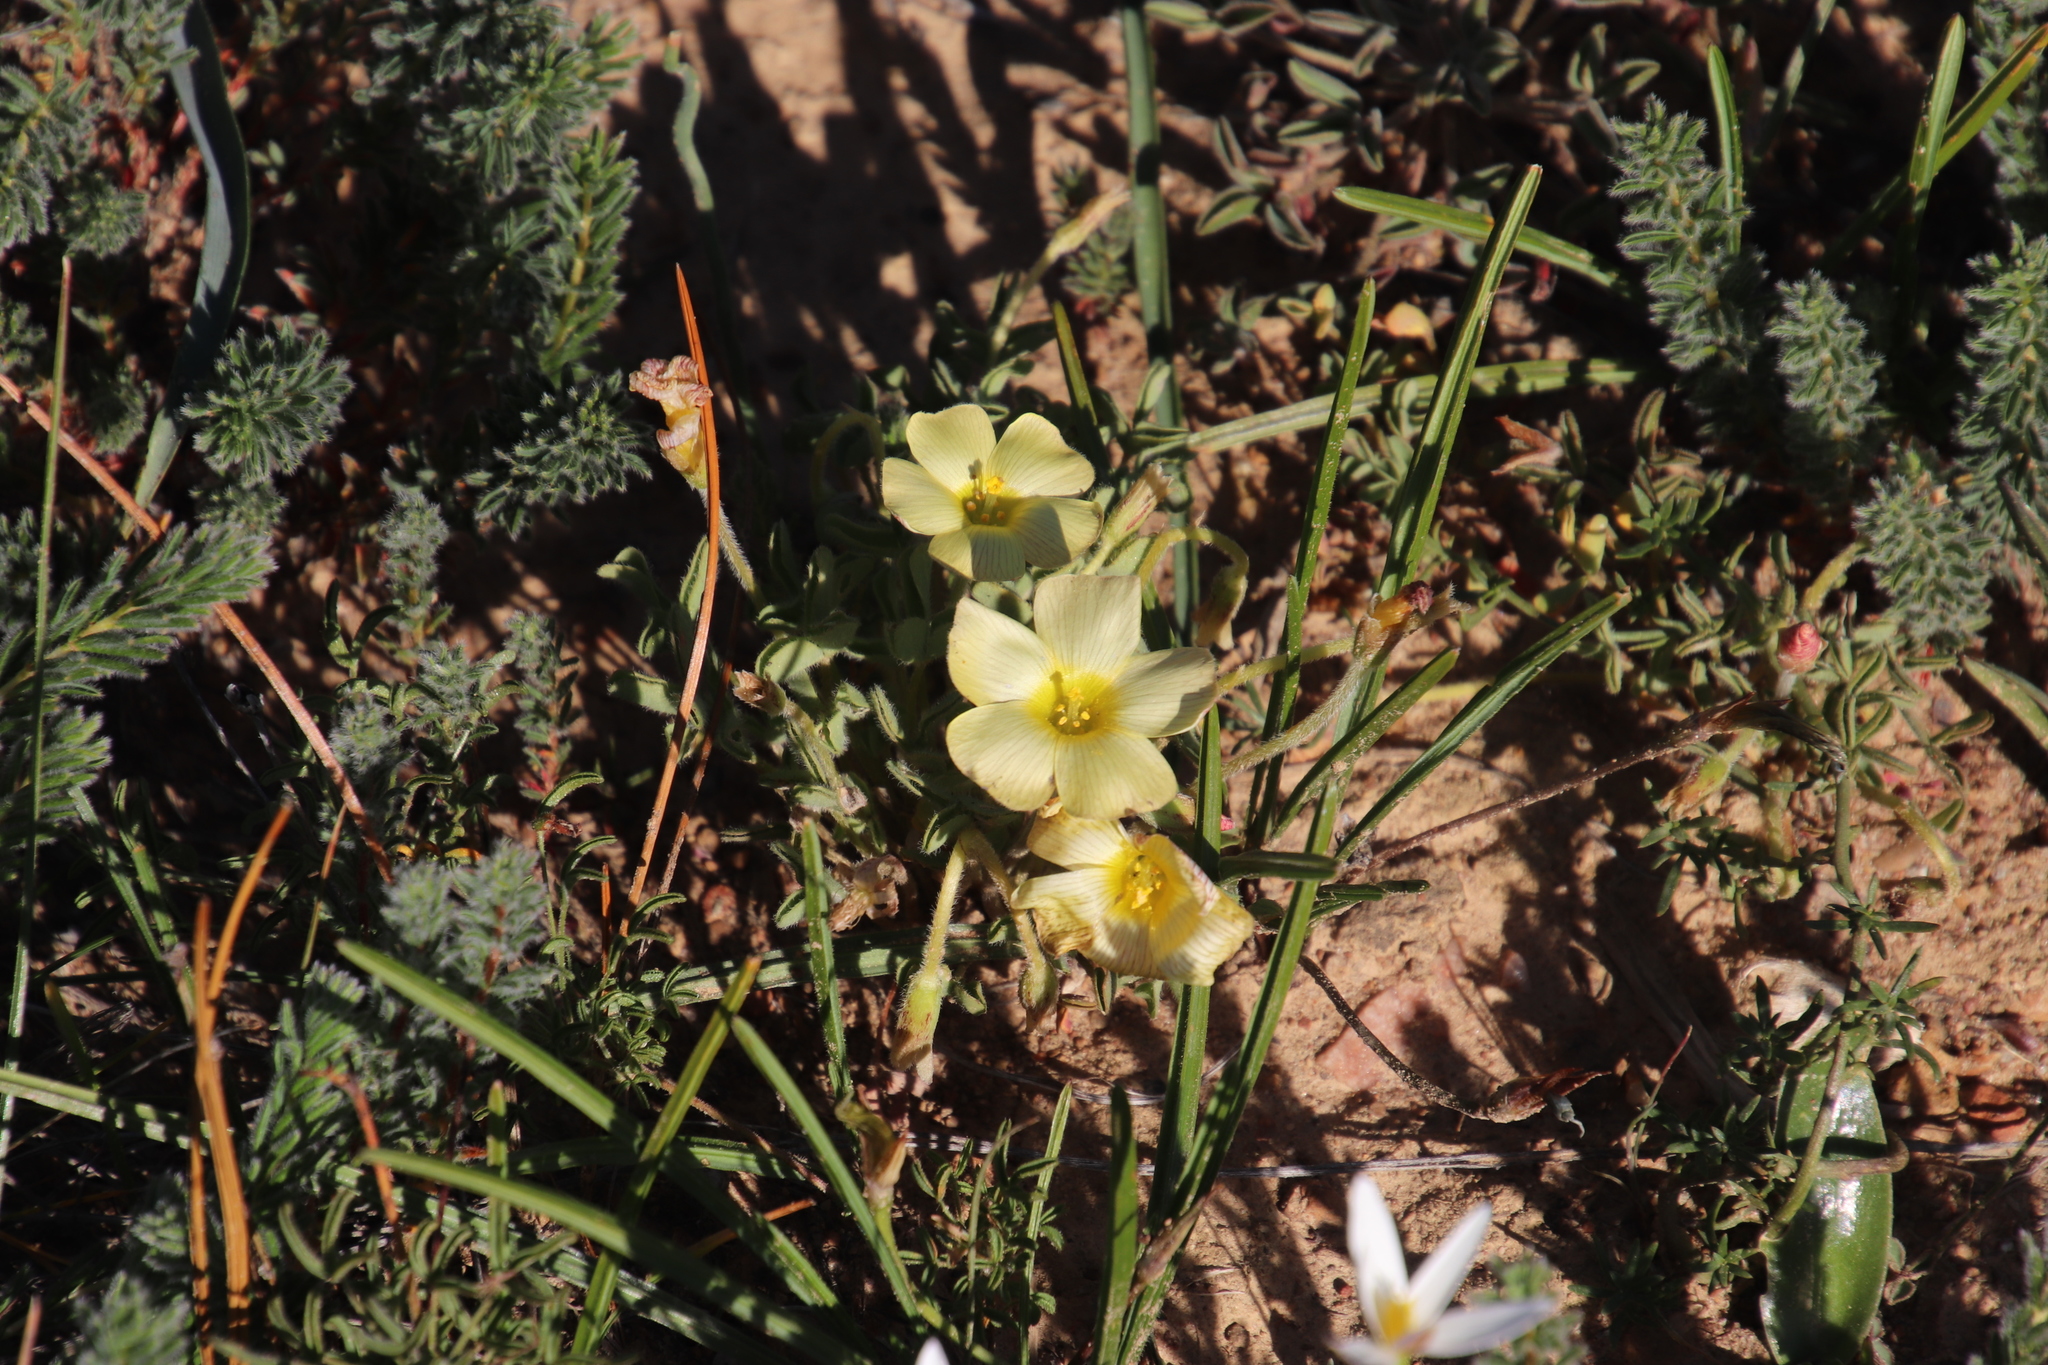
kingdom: Plantae
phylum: Tracheophyta
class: Magnoliopsida
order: Oxalidales
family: Oxalidaceae
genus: Oxalis
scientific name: Oxalis obtusa
